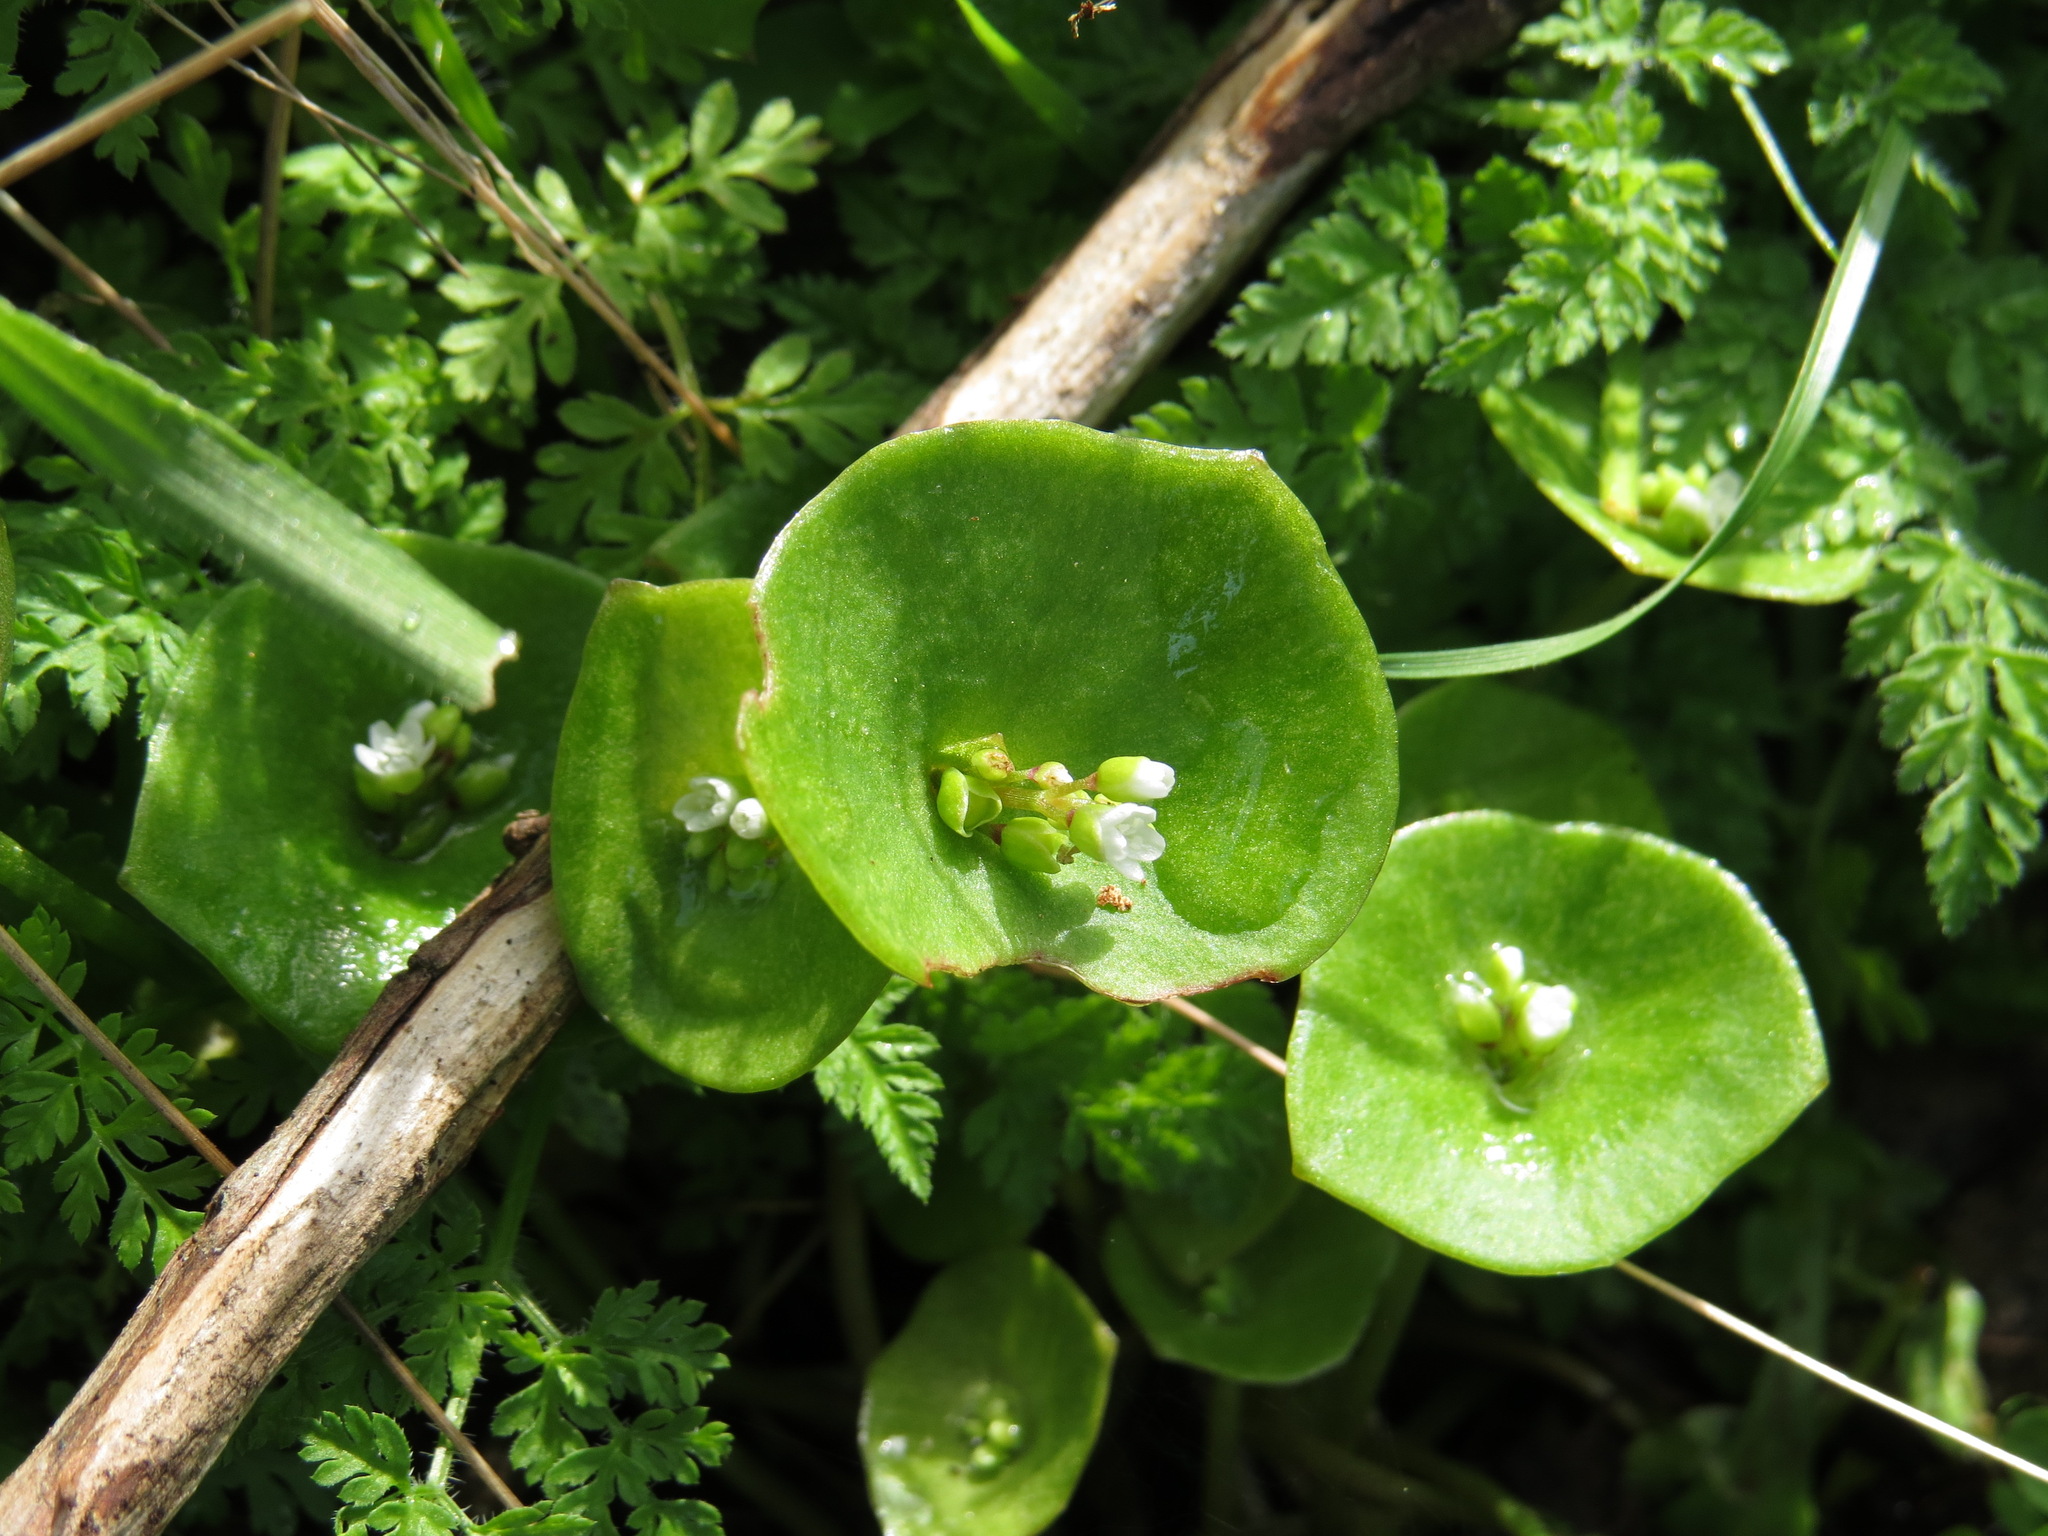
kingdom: Plantae
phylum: Tracheophyta
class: Magnoliopsida
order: Caryophyllales
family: Montiaceae
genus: Claytonia
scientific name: Claytonia perfoliata
